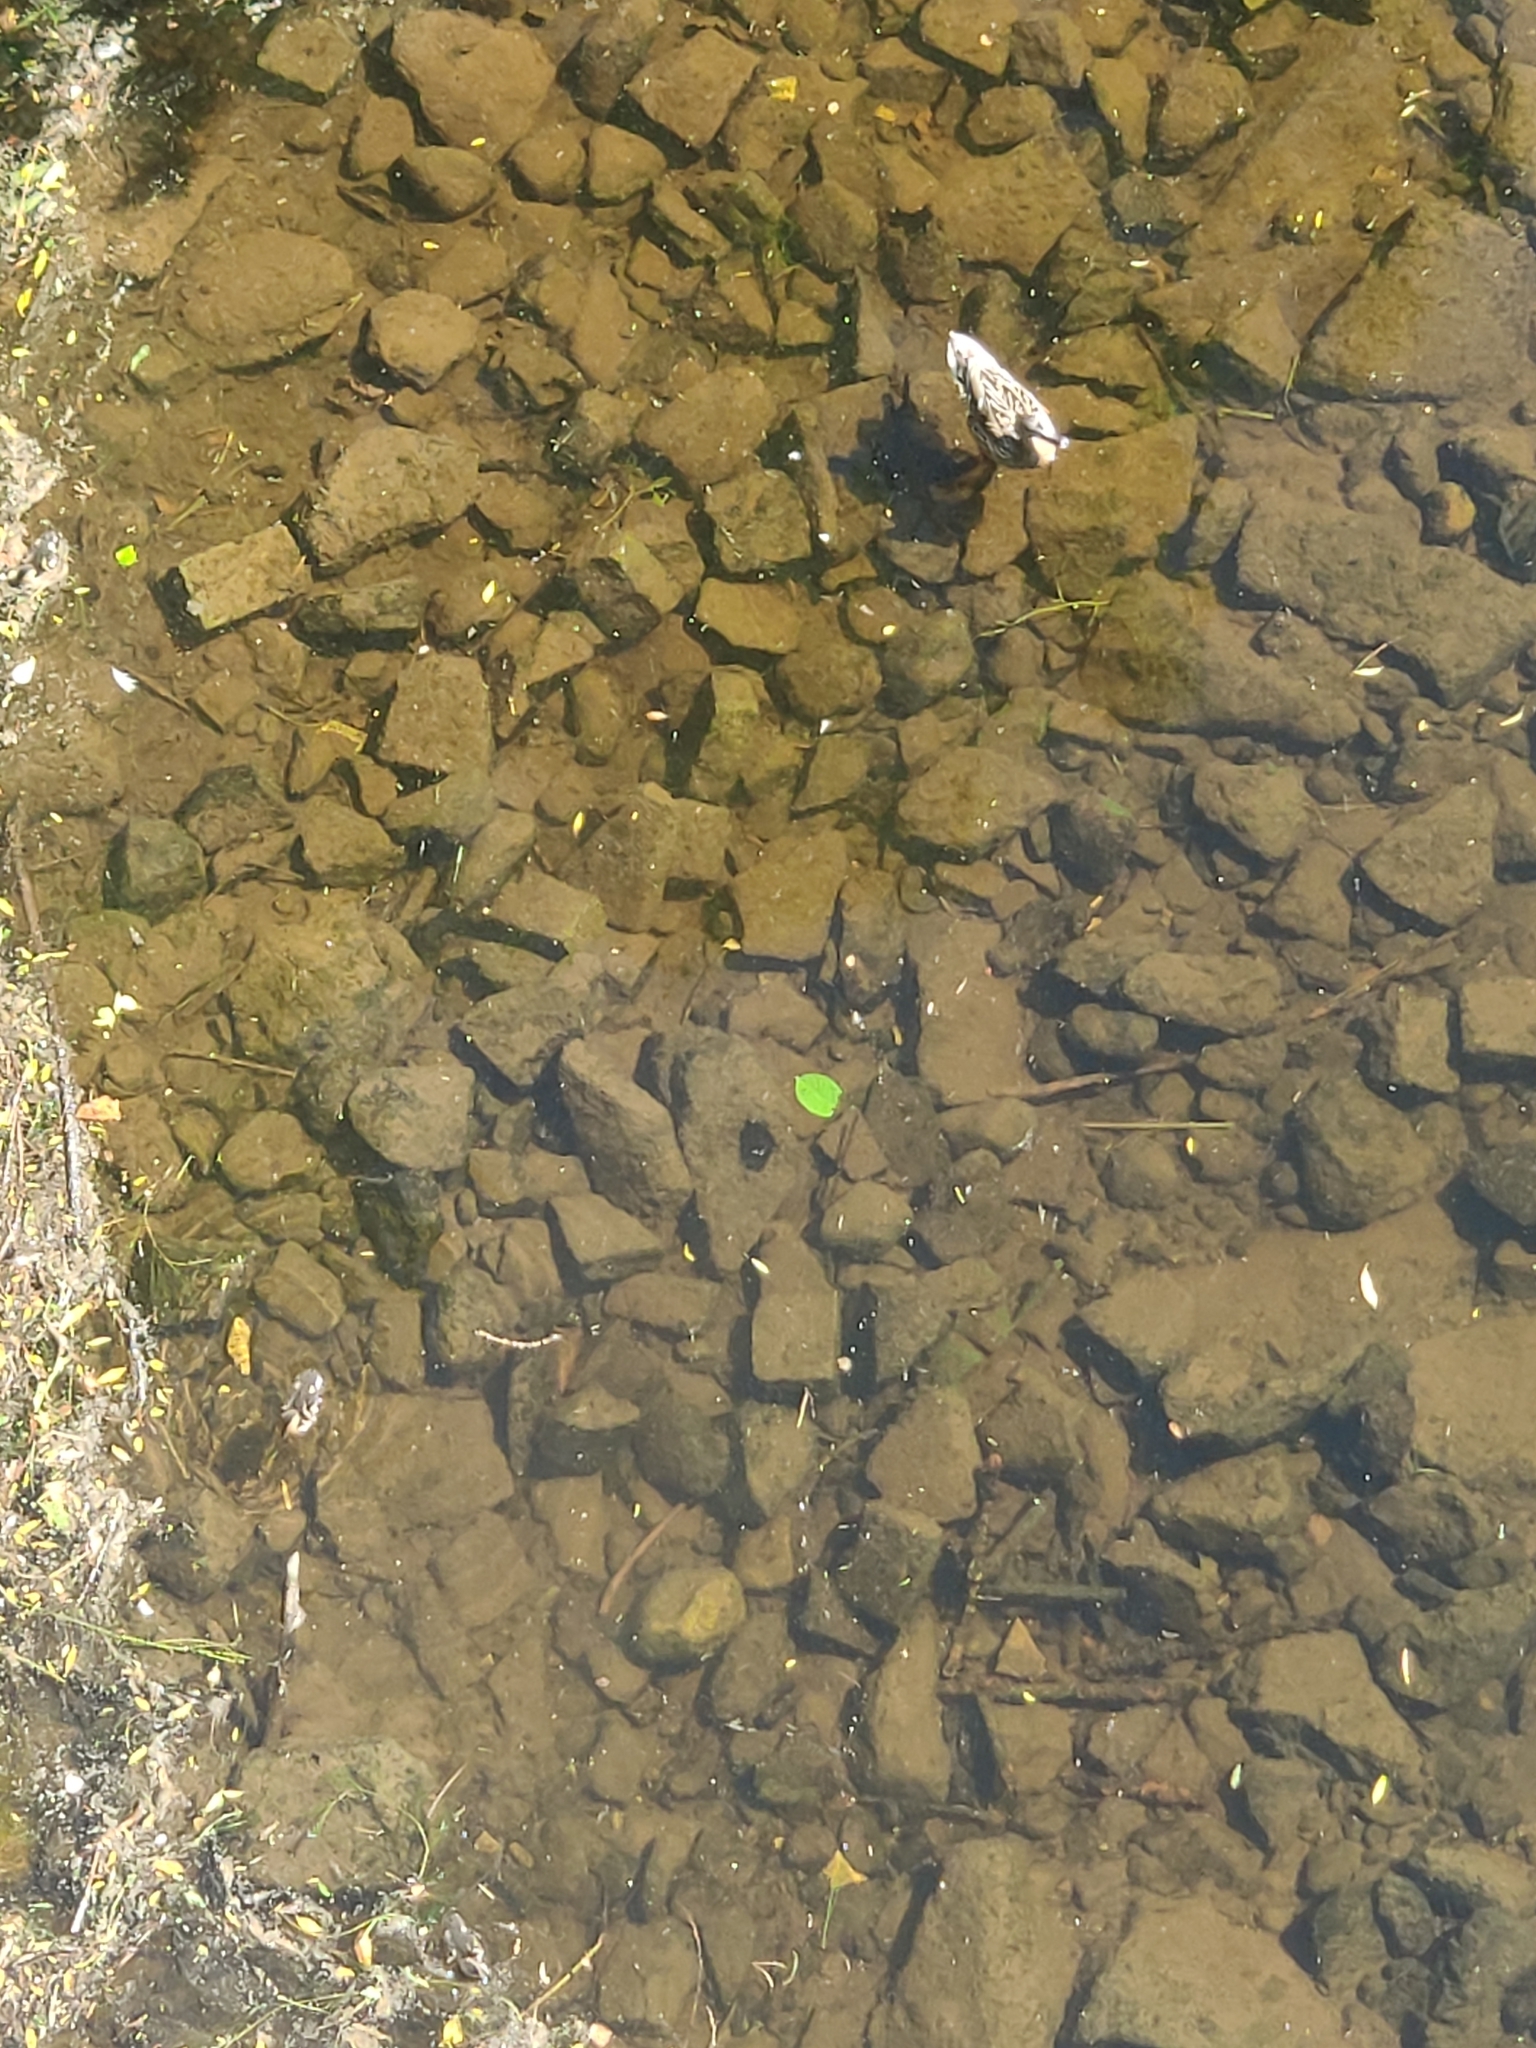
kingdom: Animalia
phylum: Chordata
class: Aves
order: Anseriformes
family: Anatidae
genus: Anas
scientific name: Anas platyrhynchos
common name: Mallard
